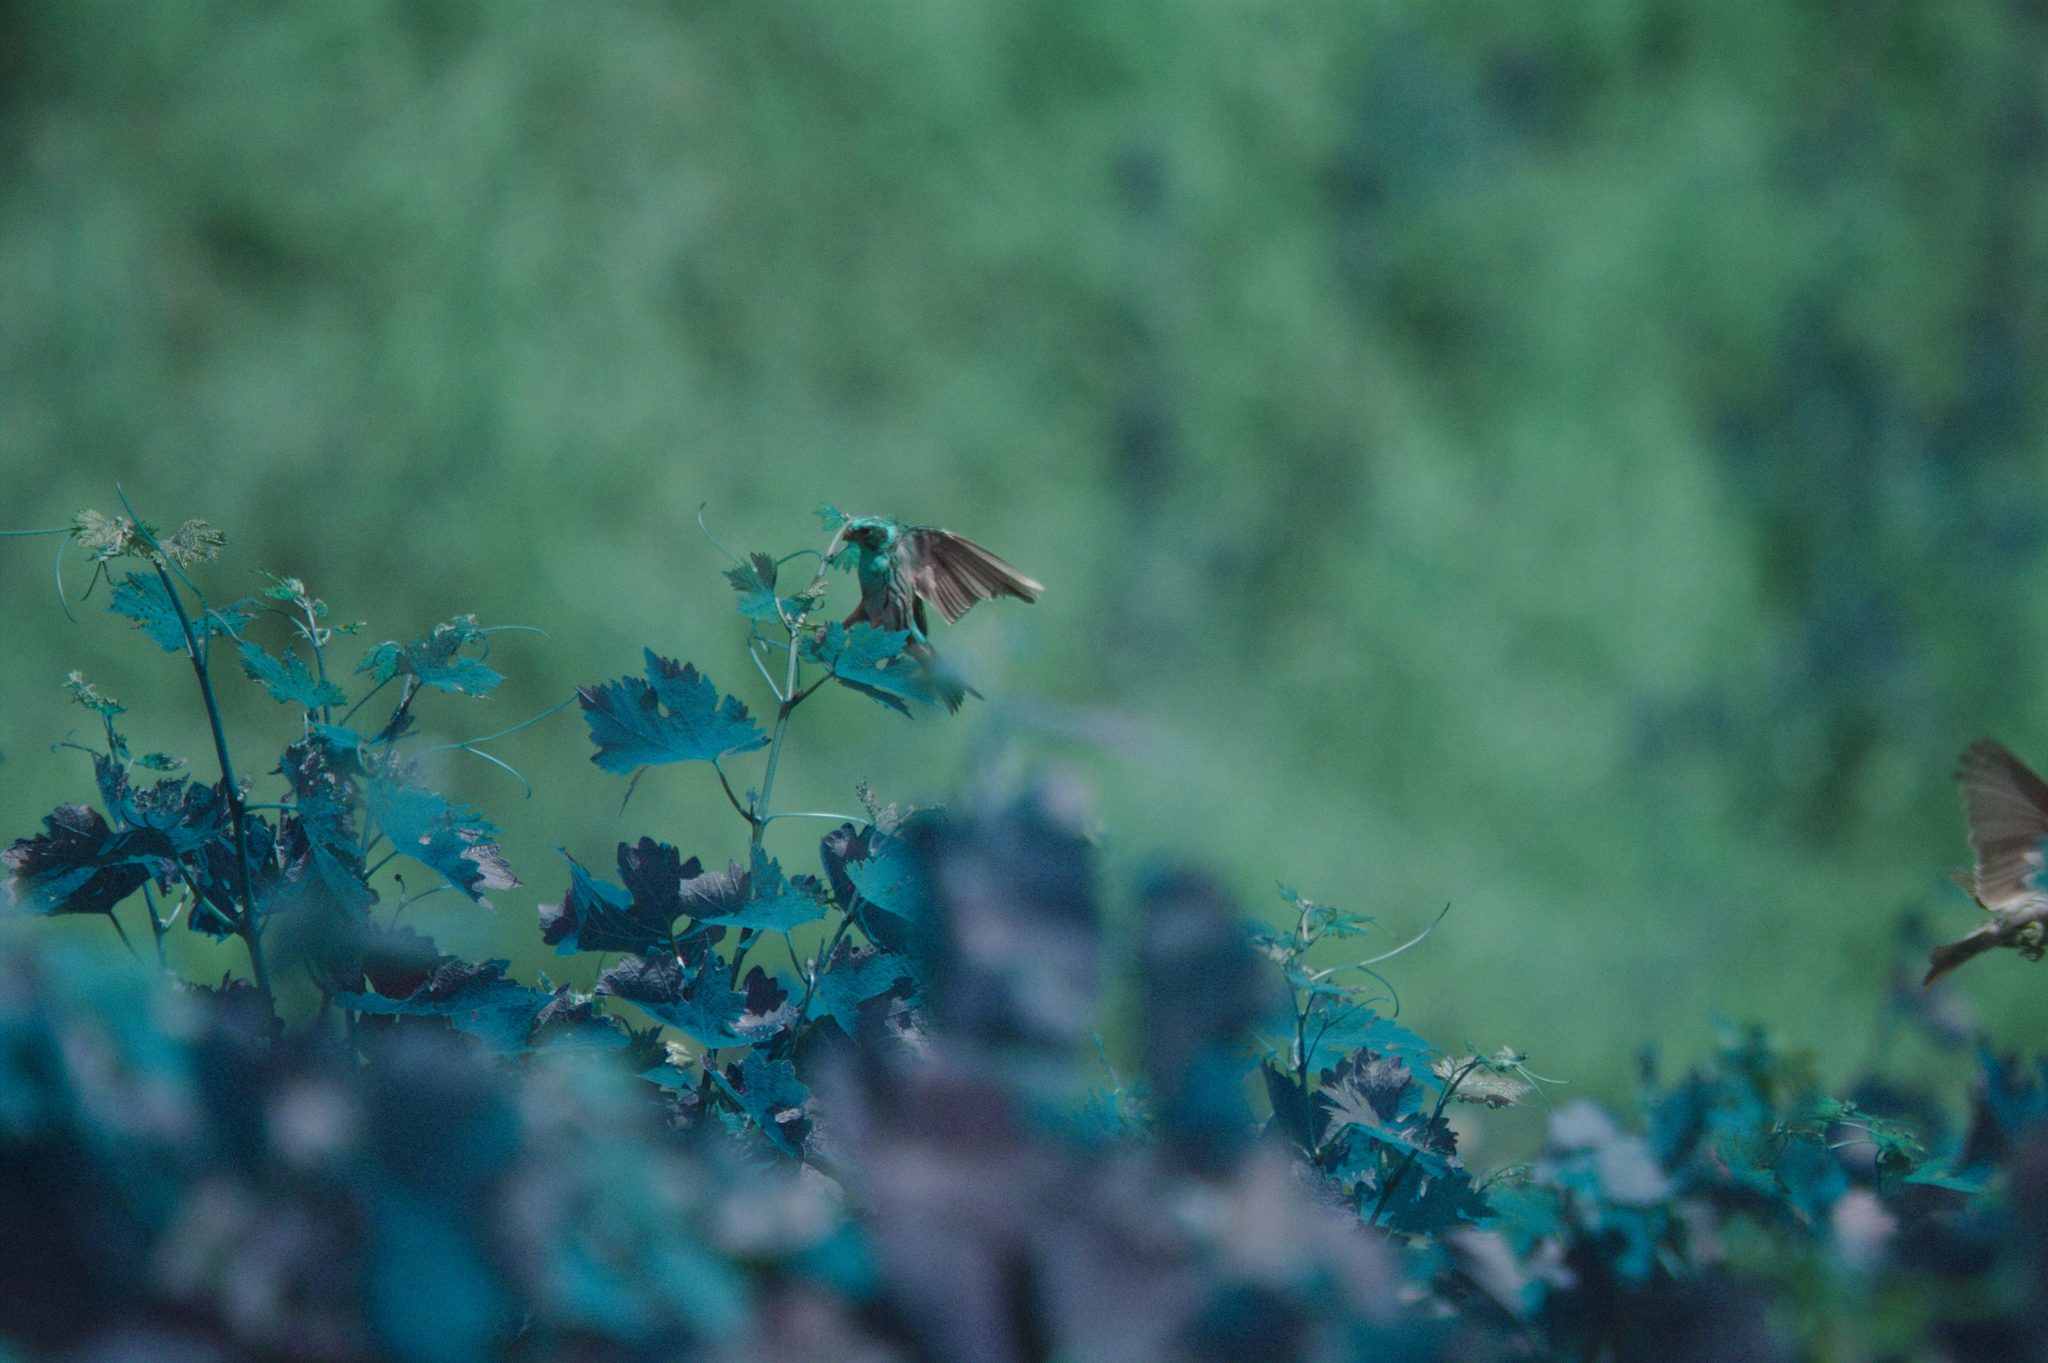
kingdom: Animalia
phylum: Chordata
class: Aves
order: Passeriformes
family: Fringillidae
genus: Serinus
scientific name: Serinus serinus
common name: European serin
